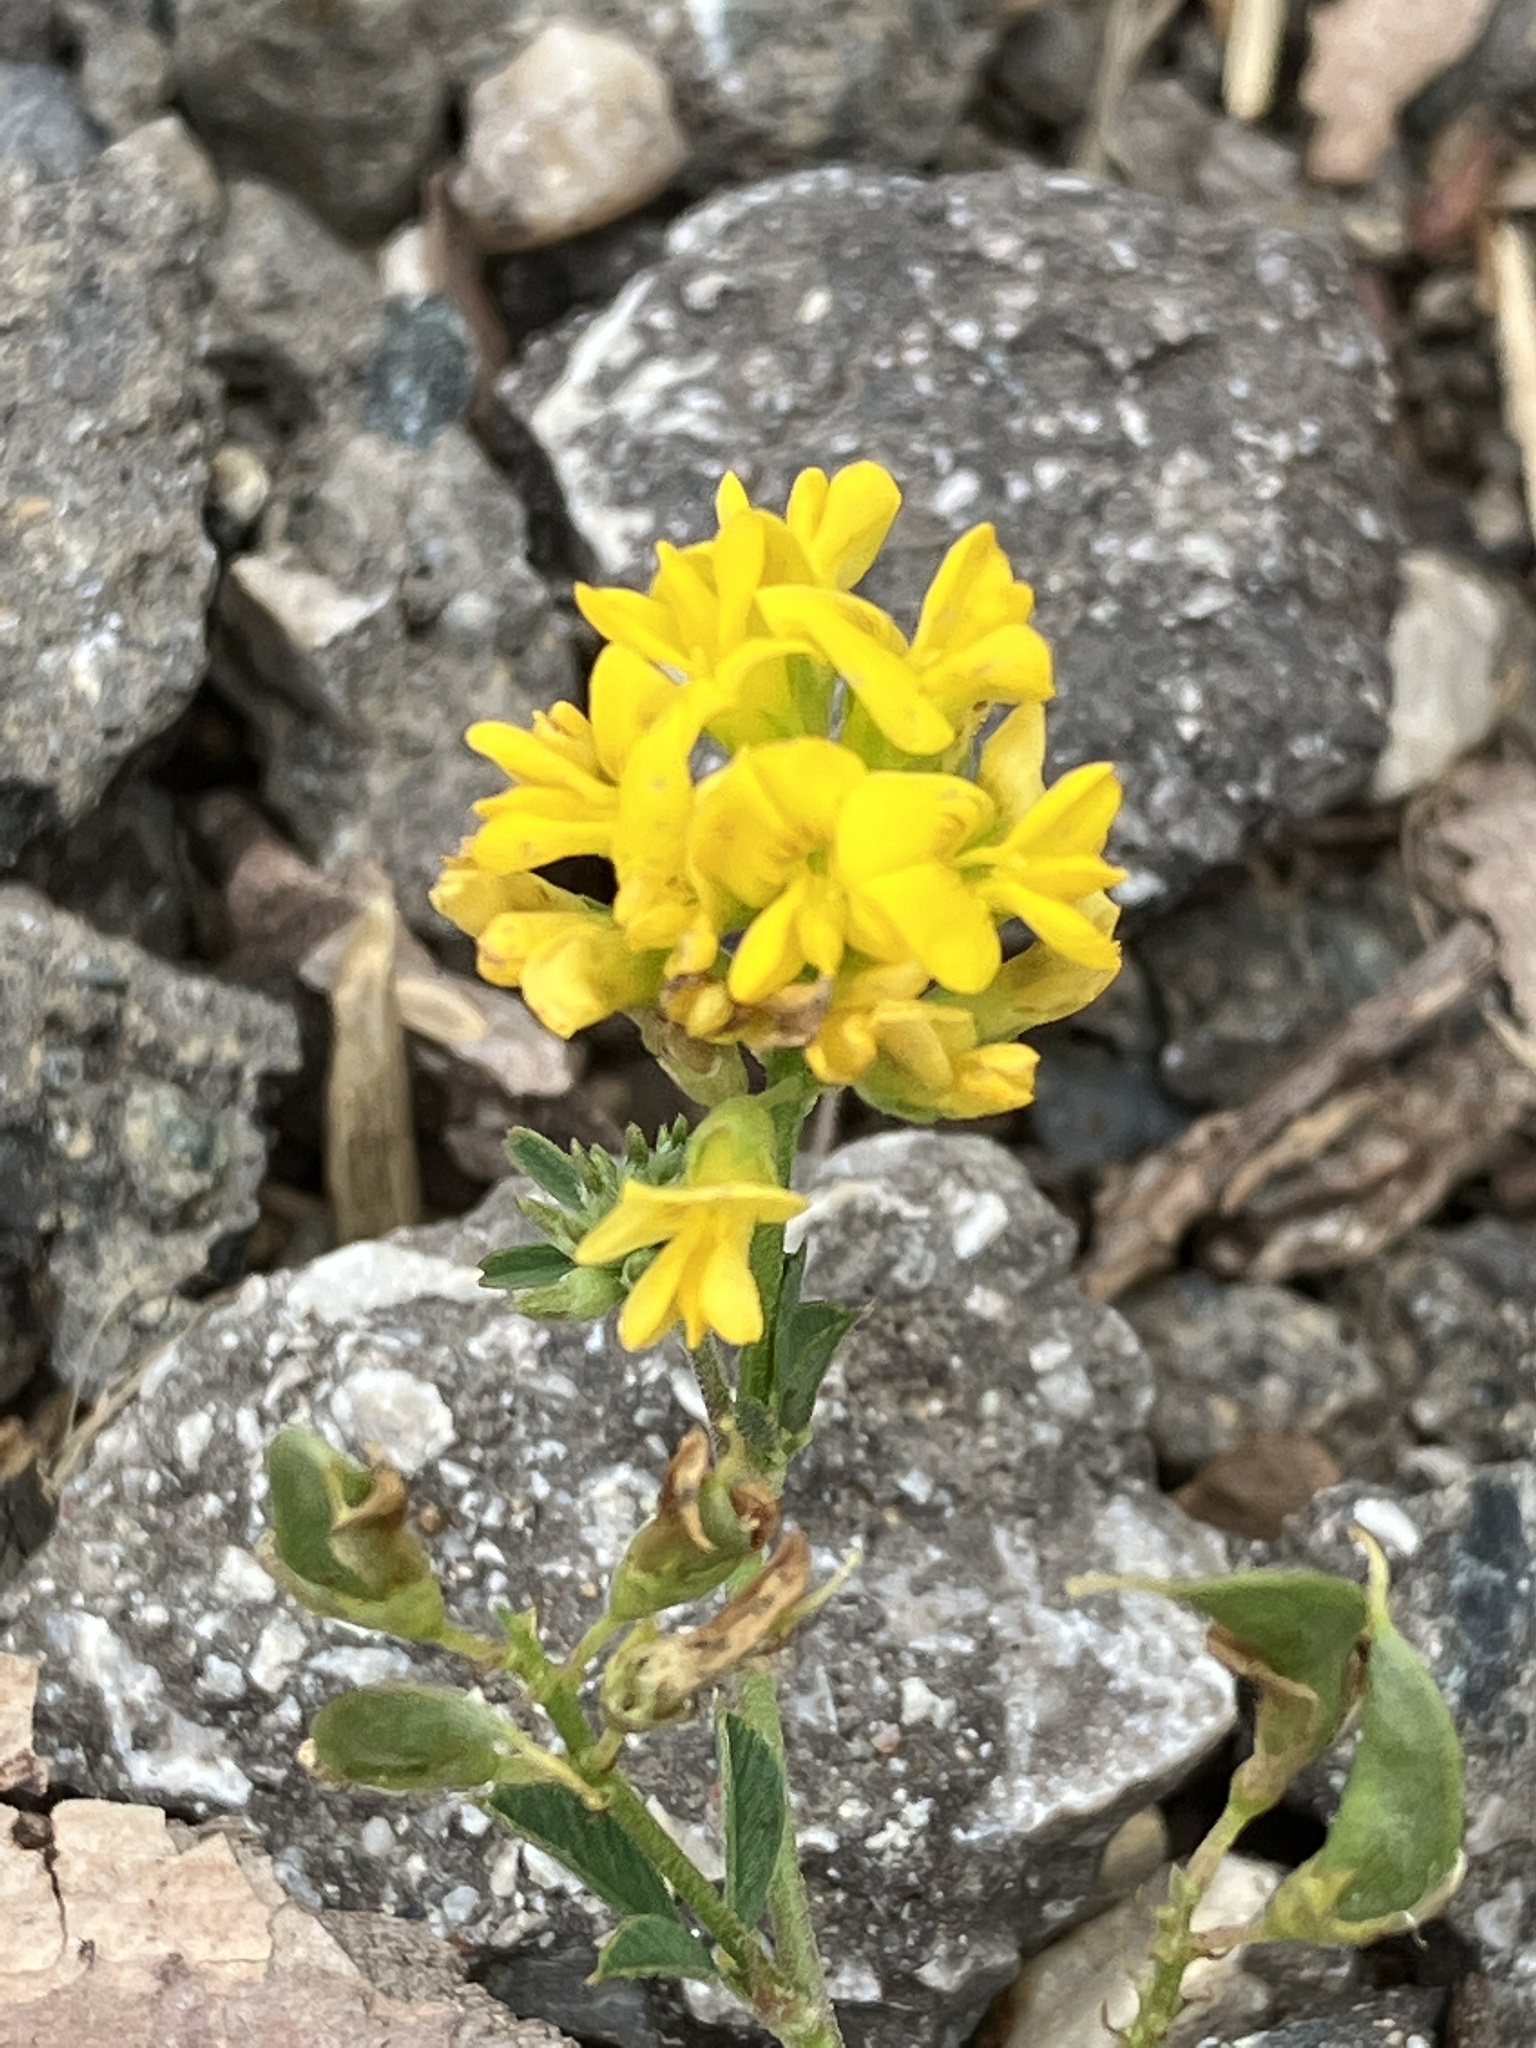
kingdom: Plantae
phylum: Tracheophyta
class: Magnoliopsida
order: Fabales
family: Fabaceae
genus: Medicago
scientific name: Medicago falcata
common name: Sickle medick
